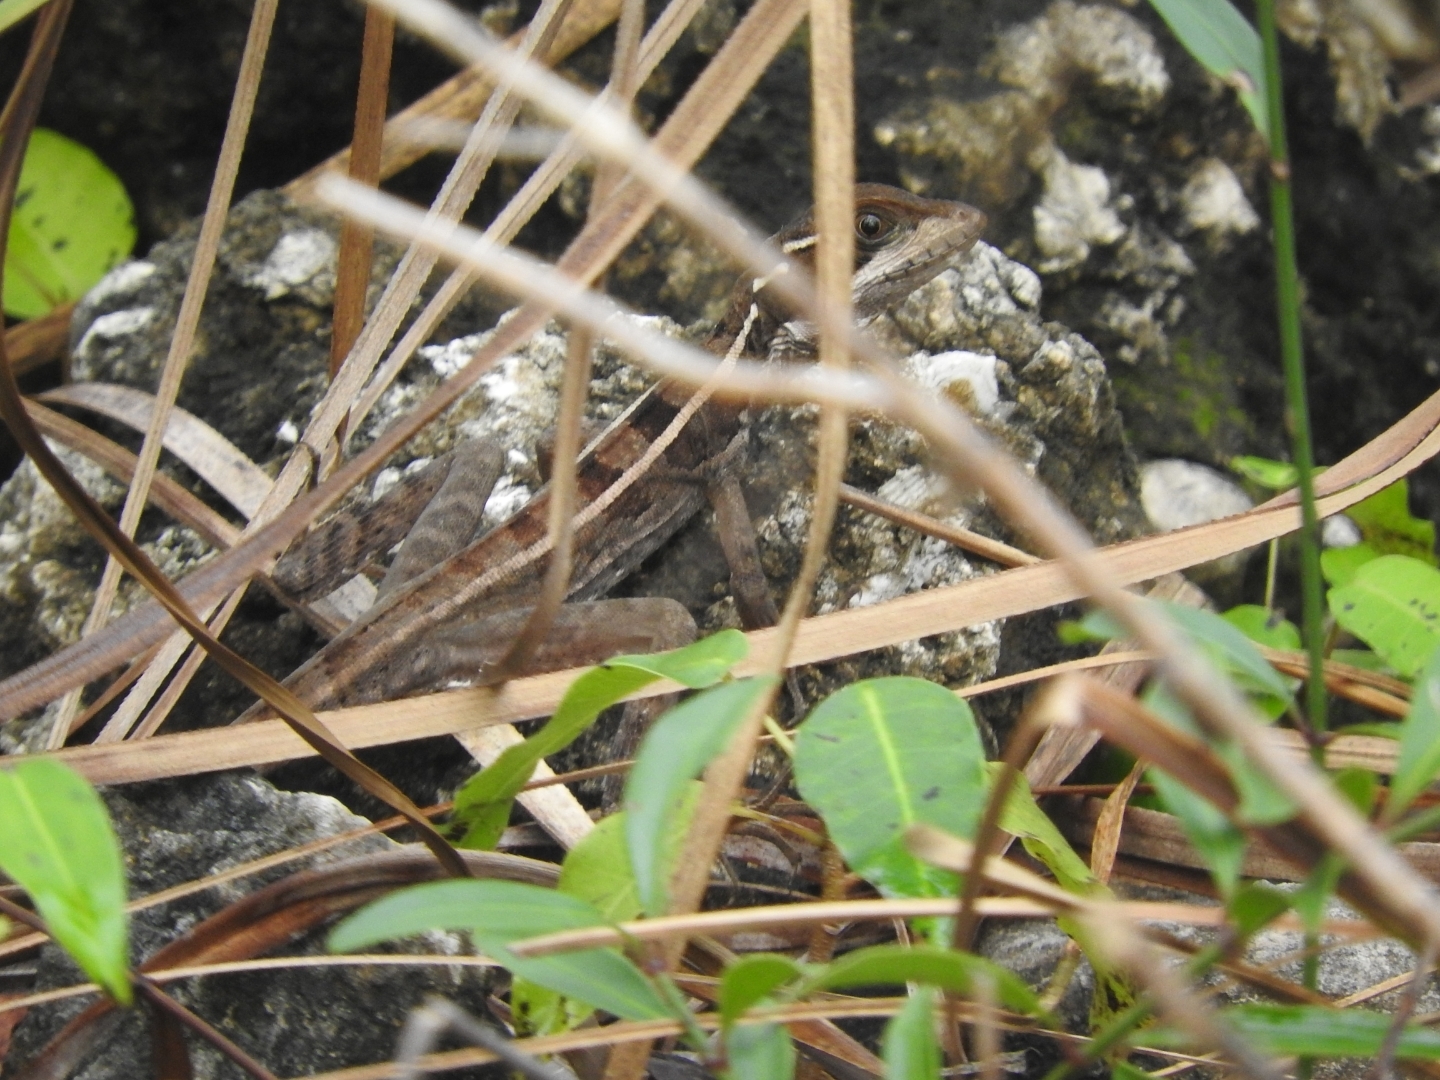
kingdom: Animalia
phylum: Chordata
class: Squamata
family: Corytophanidae
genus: Basiliscus
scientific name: Basiliscus vittatus
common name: Brown basilisk
